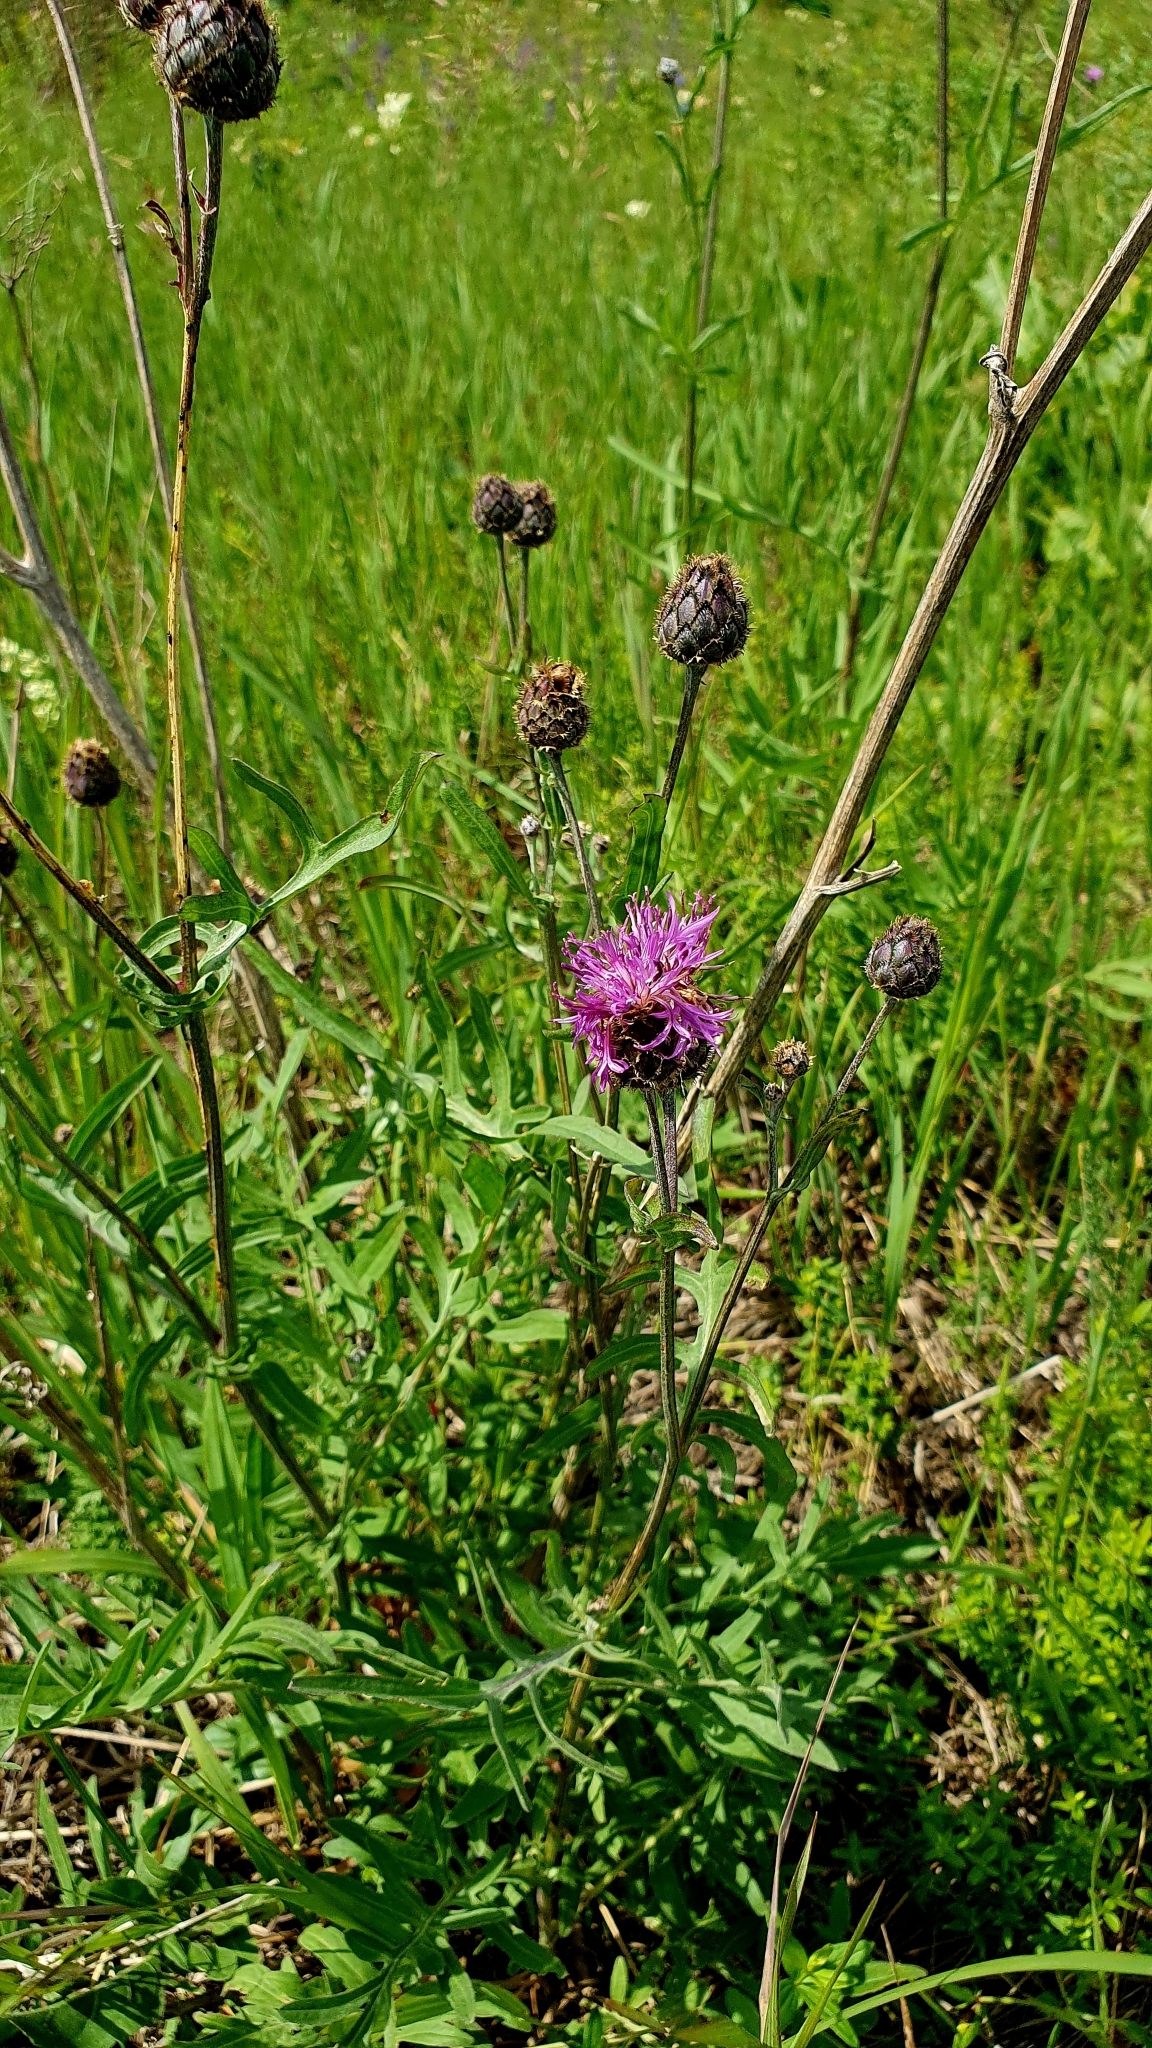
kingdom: Plantae
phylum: Tracheophyta
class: Magnoliopsida
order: Asterales
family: Asteraceae
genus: Centaurea
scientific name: Centaurea scabiosa
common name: Greater knapweed
